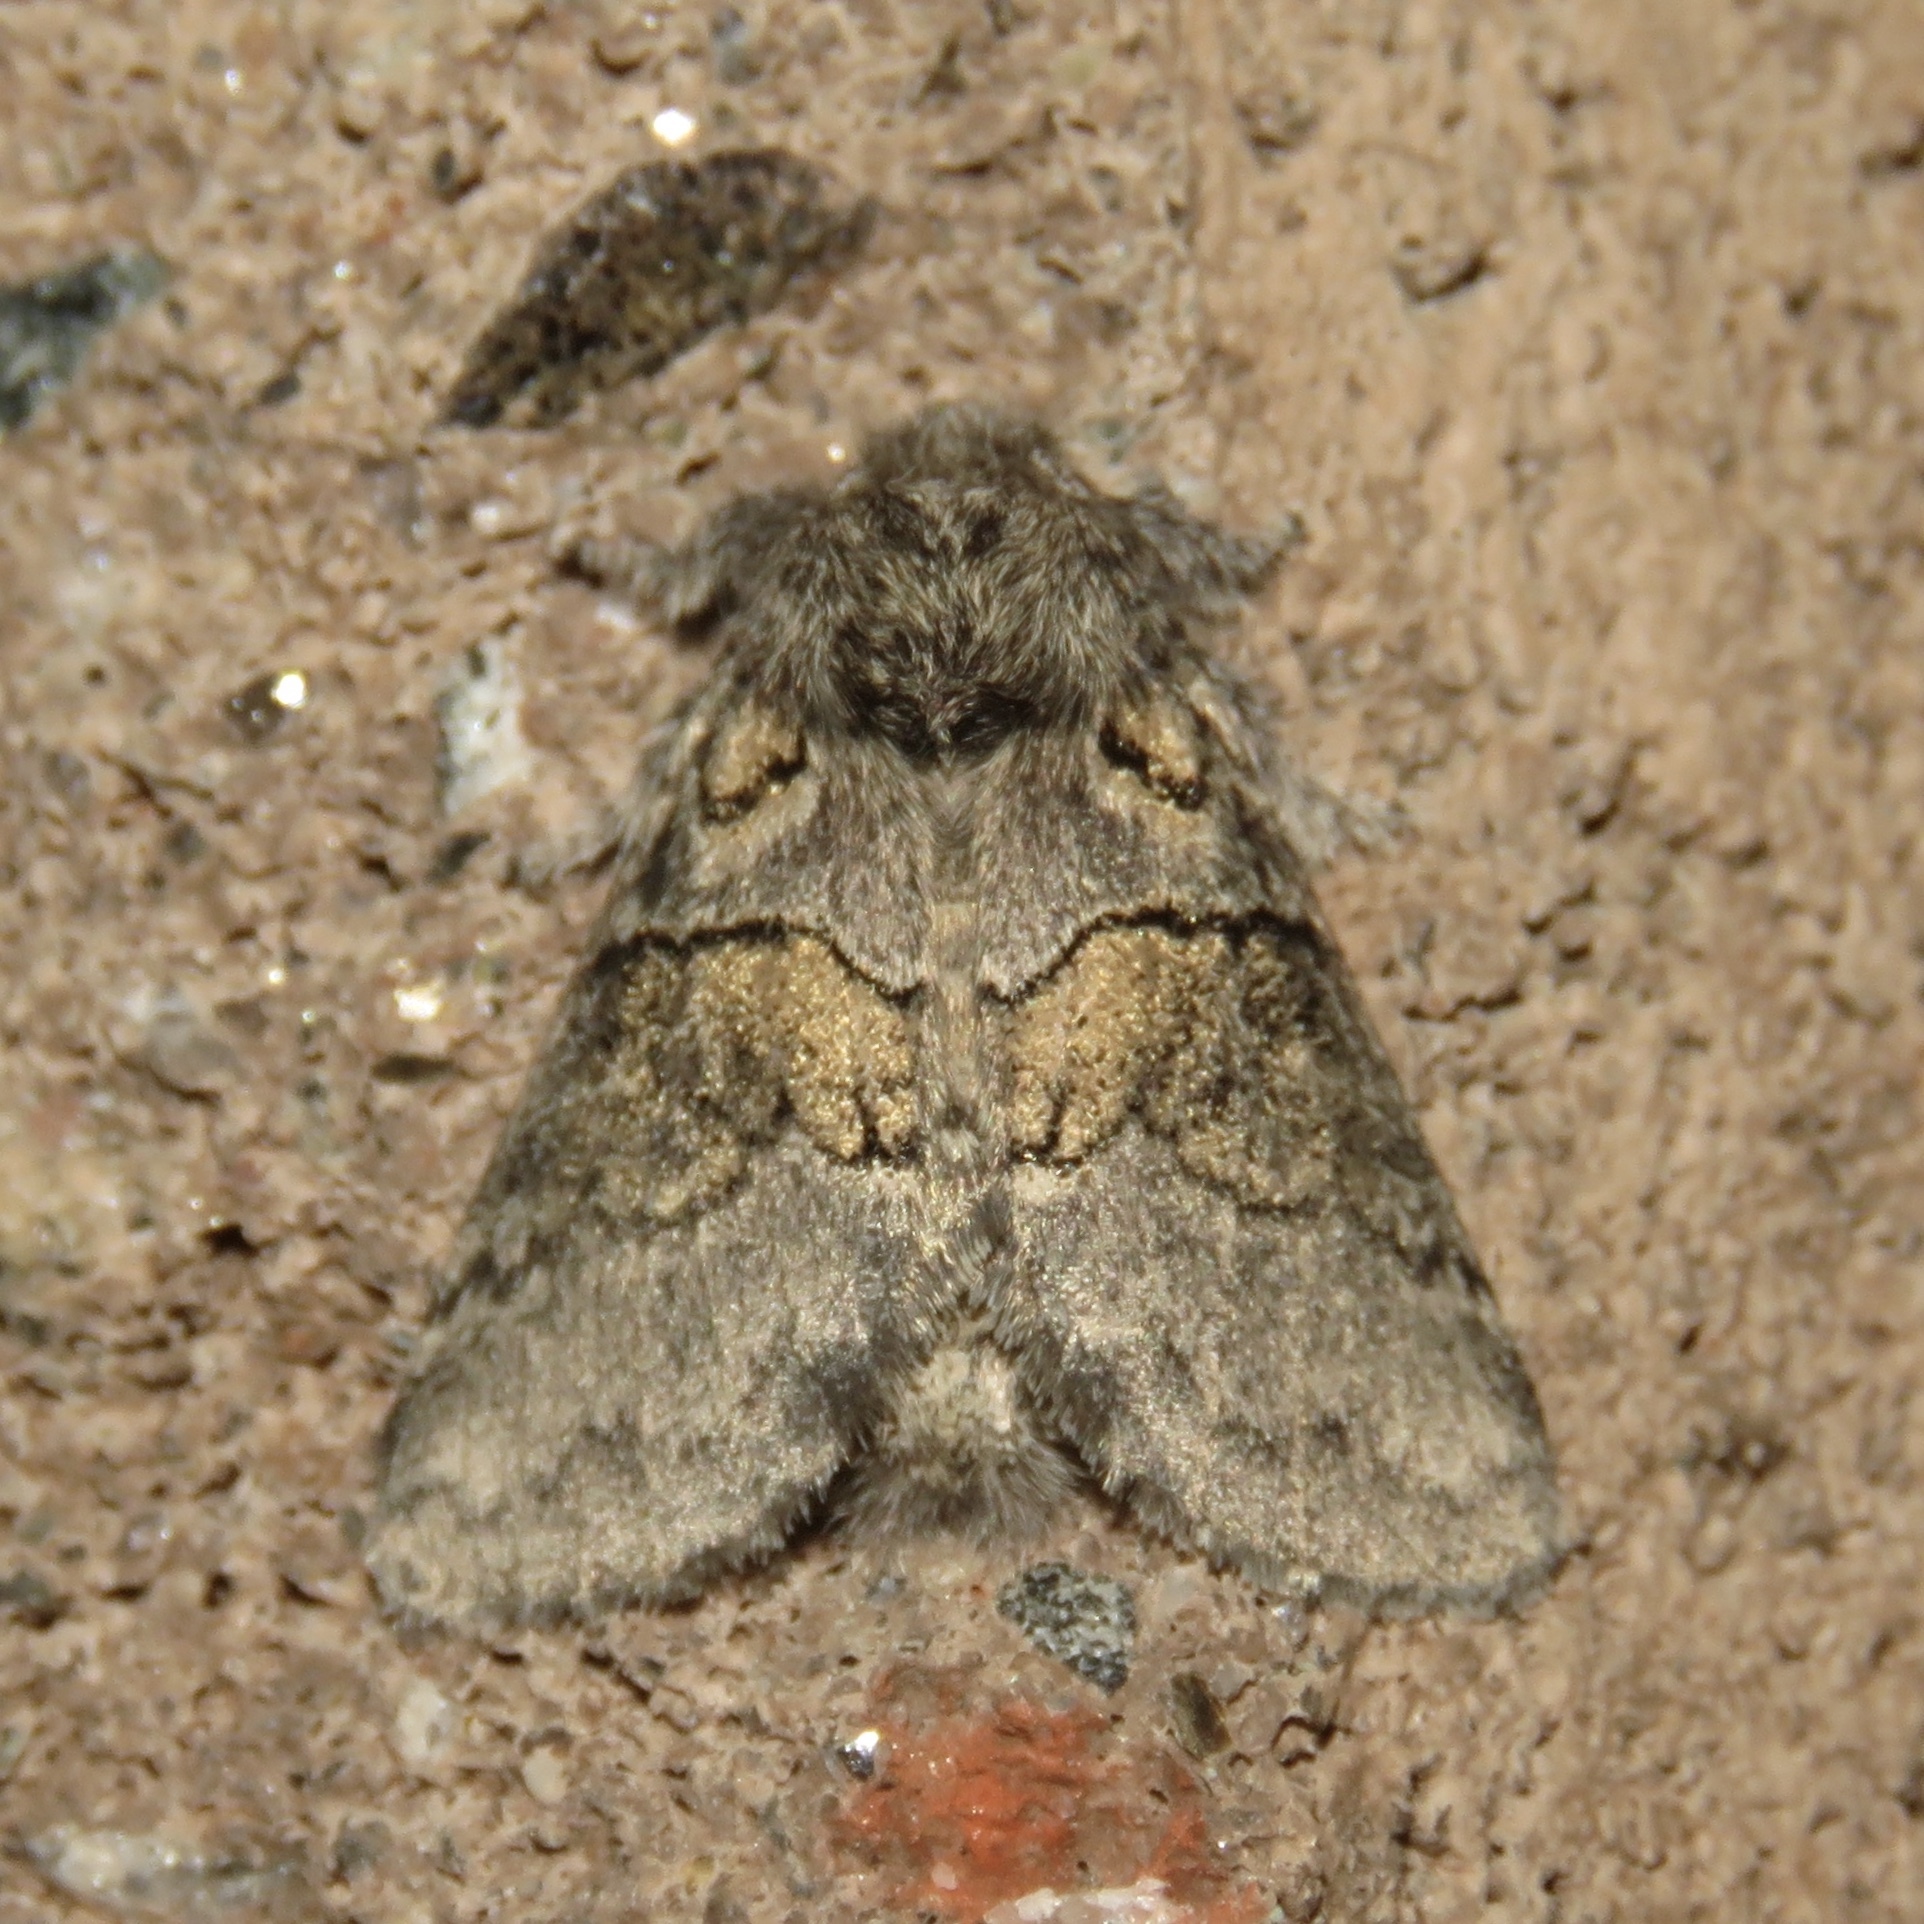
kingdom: Animalia
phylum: Arthropoda
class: Insecta
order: Lepidoptera
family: Notodontidae
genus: Gluphisia
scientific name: Gluphisia septentrionis
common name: Common gluphisia
